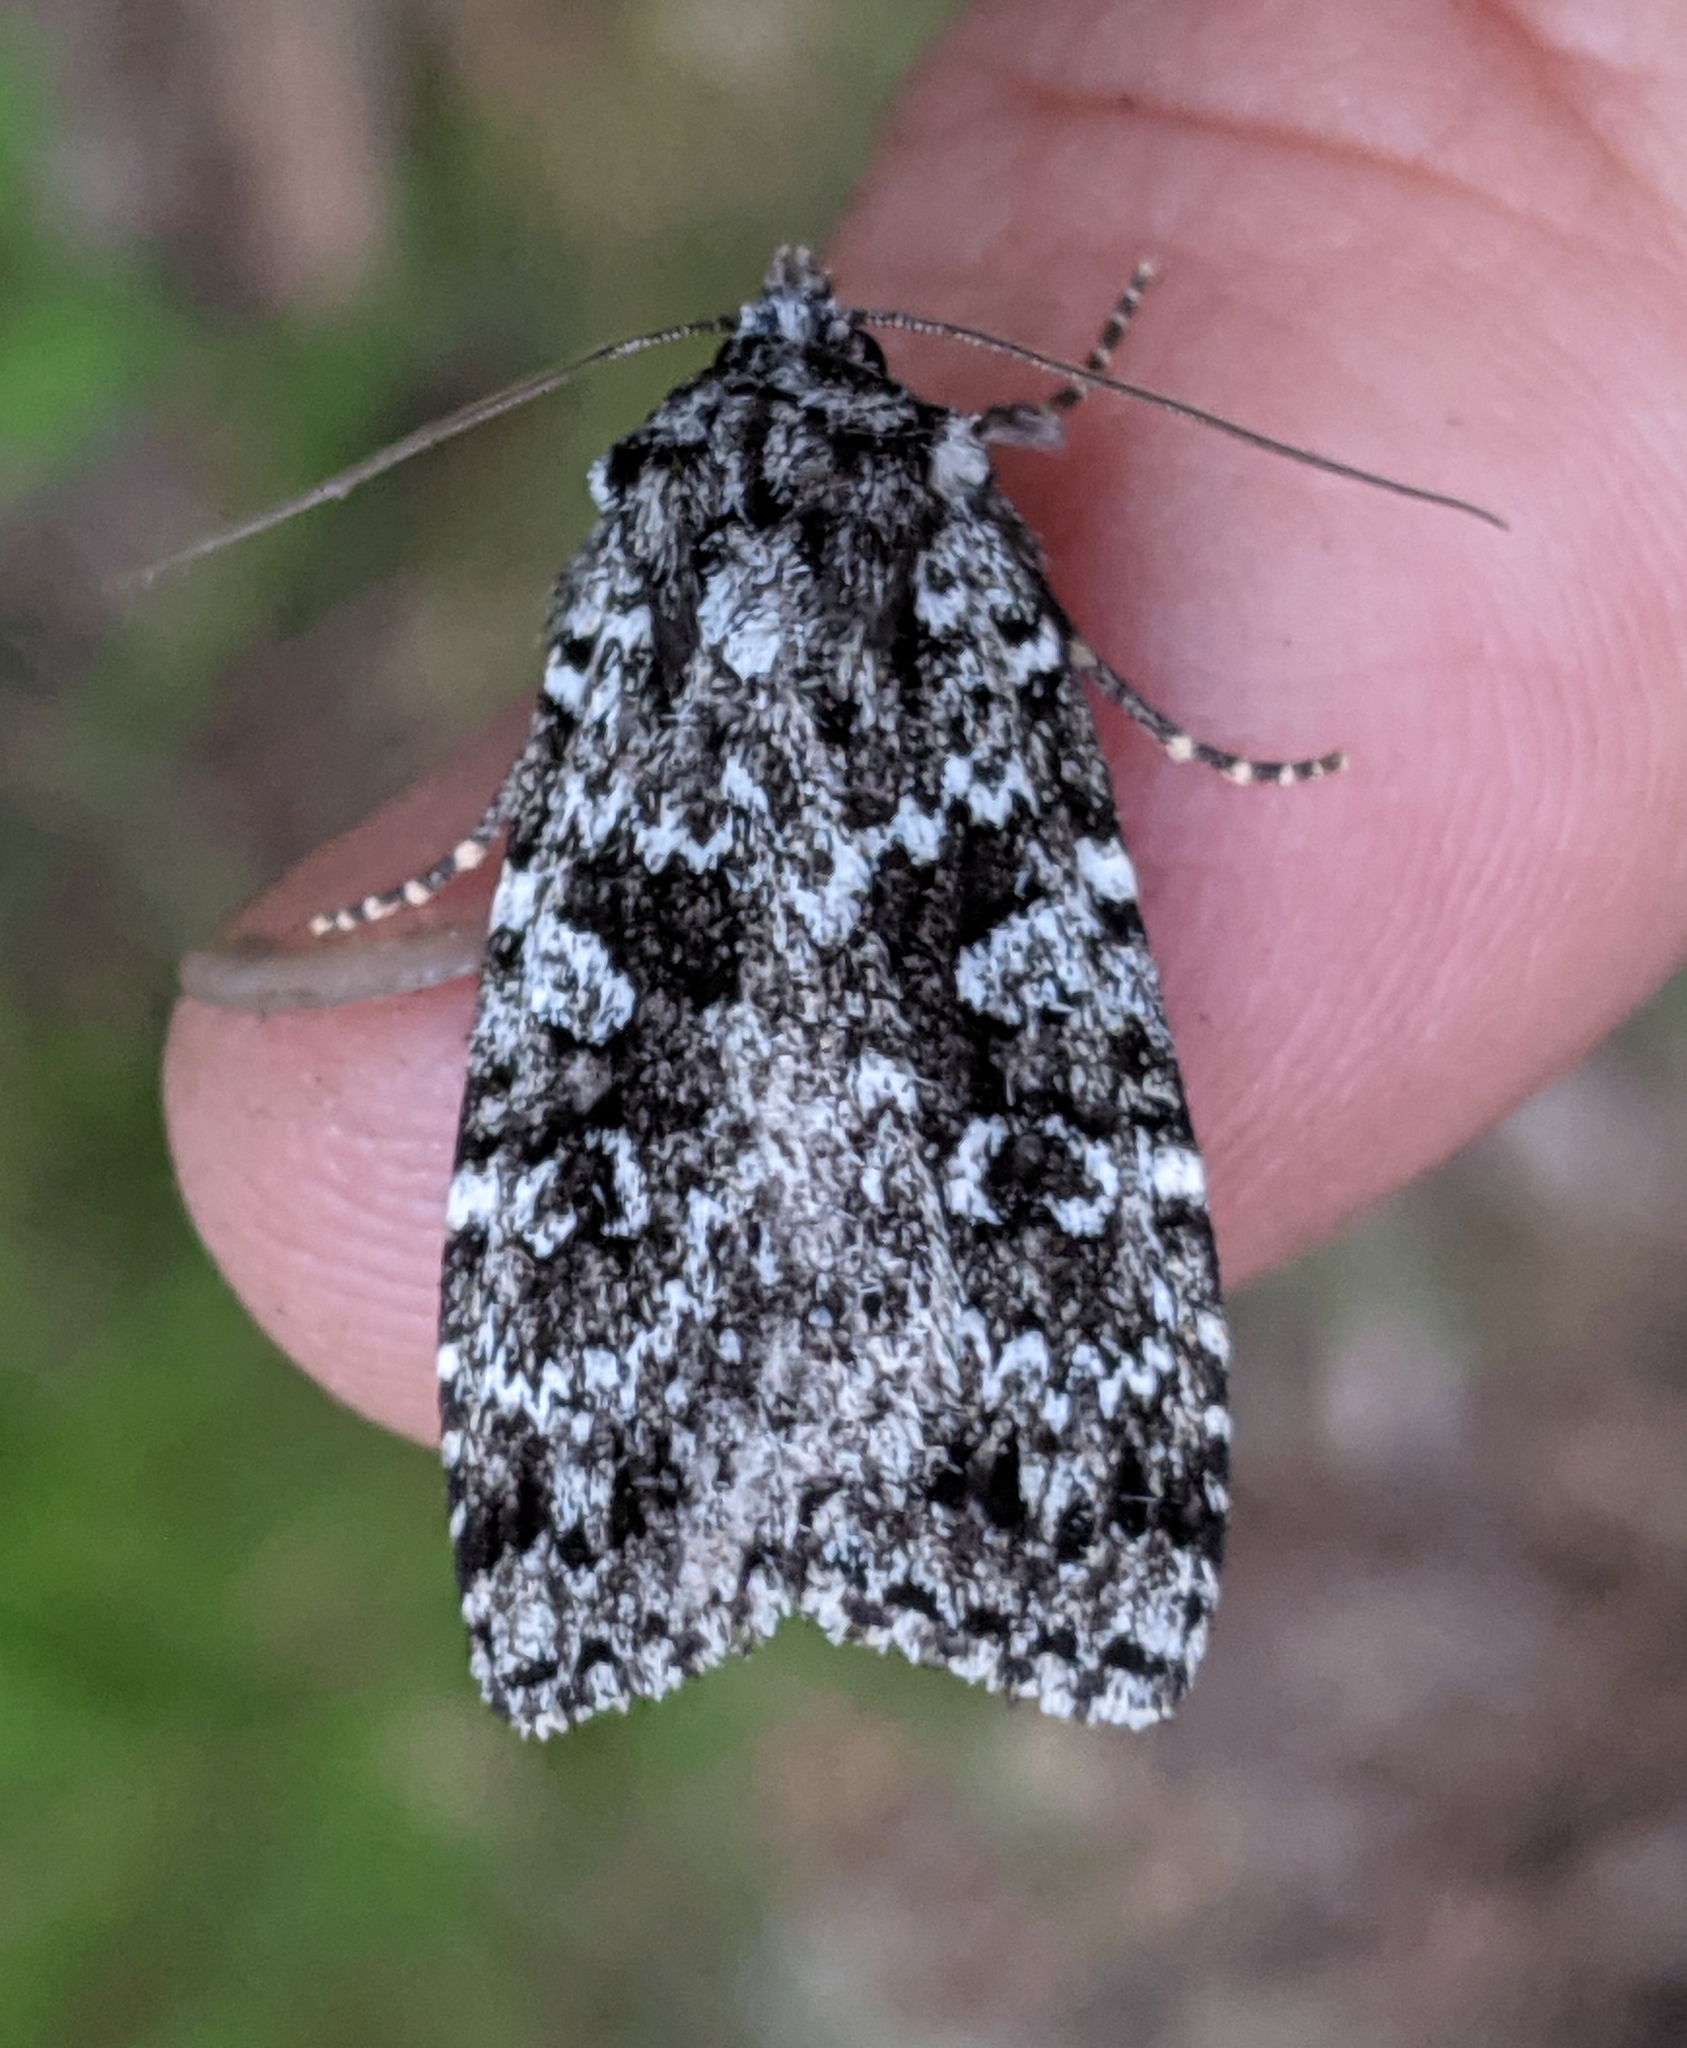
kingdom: Animalia
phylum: Arthropoda
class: Insecta
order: Lepidoptera
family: Noctuidae
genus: Xestia
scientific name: Xestia mixta
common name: Mixta xestia moth
